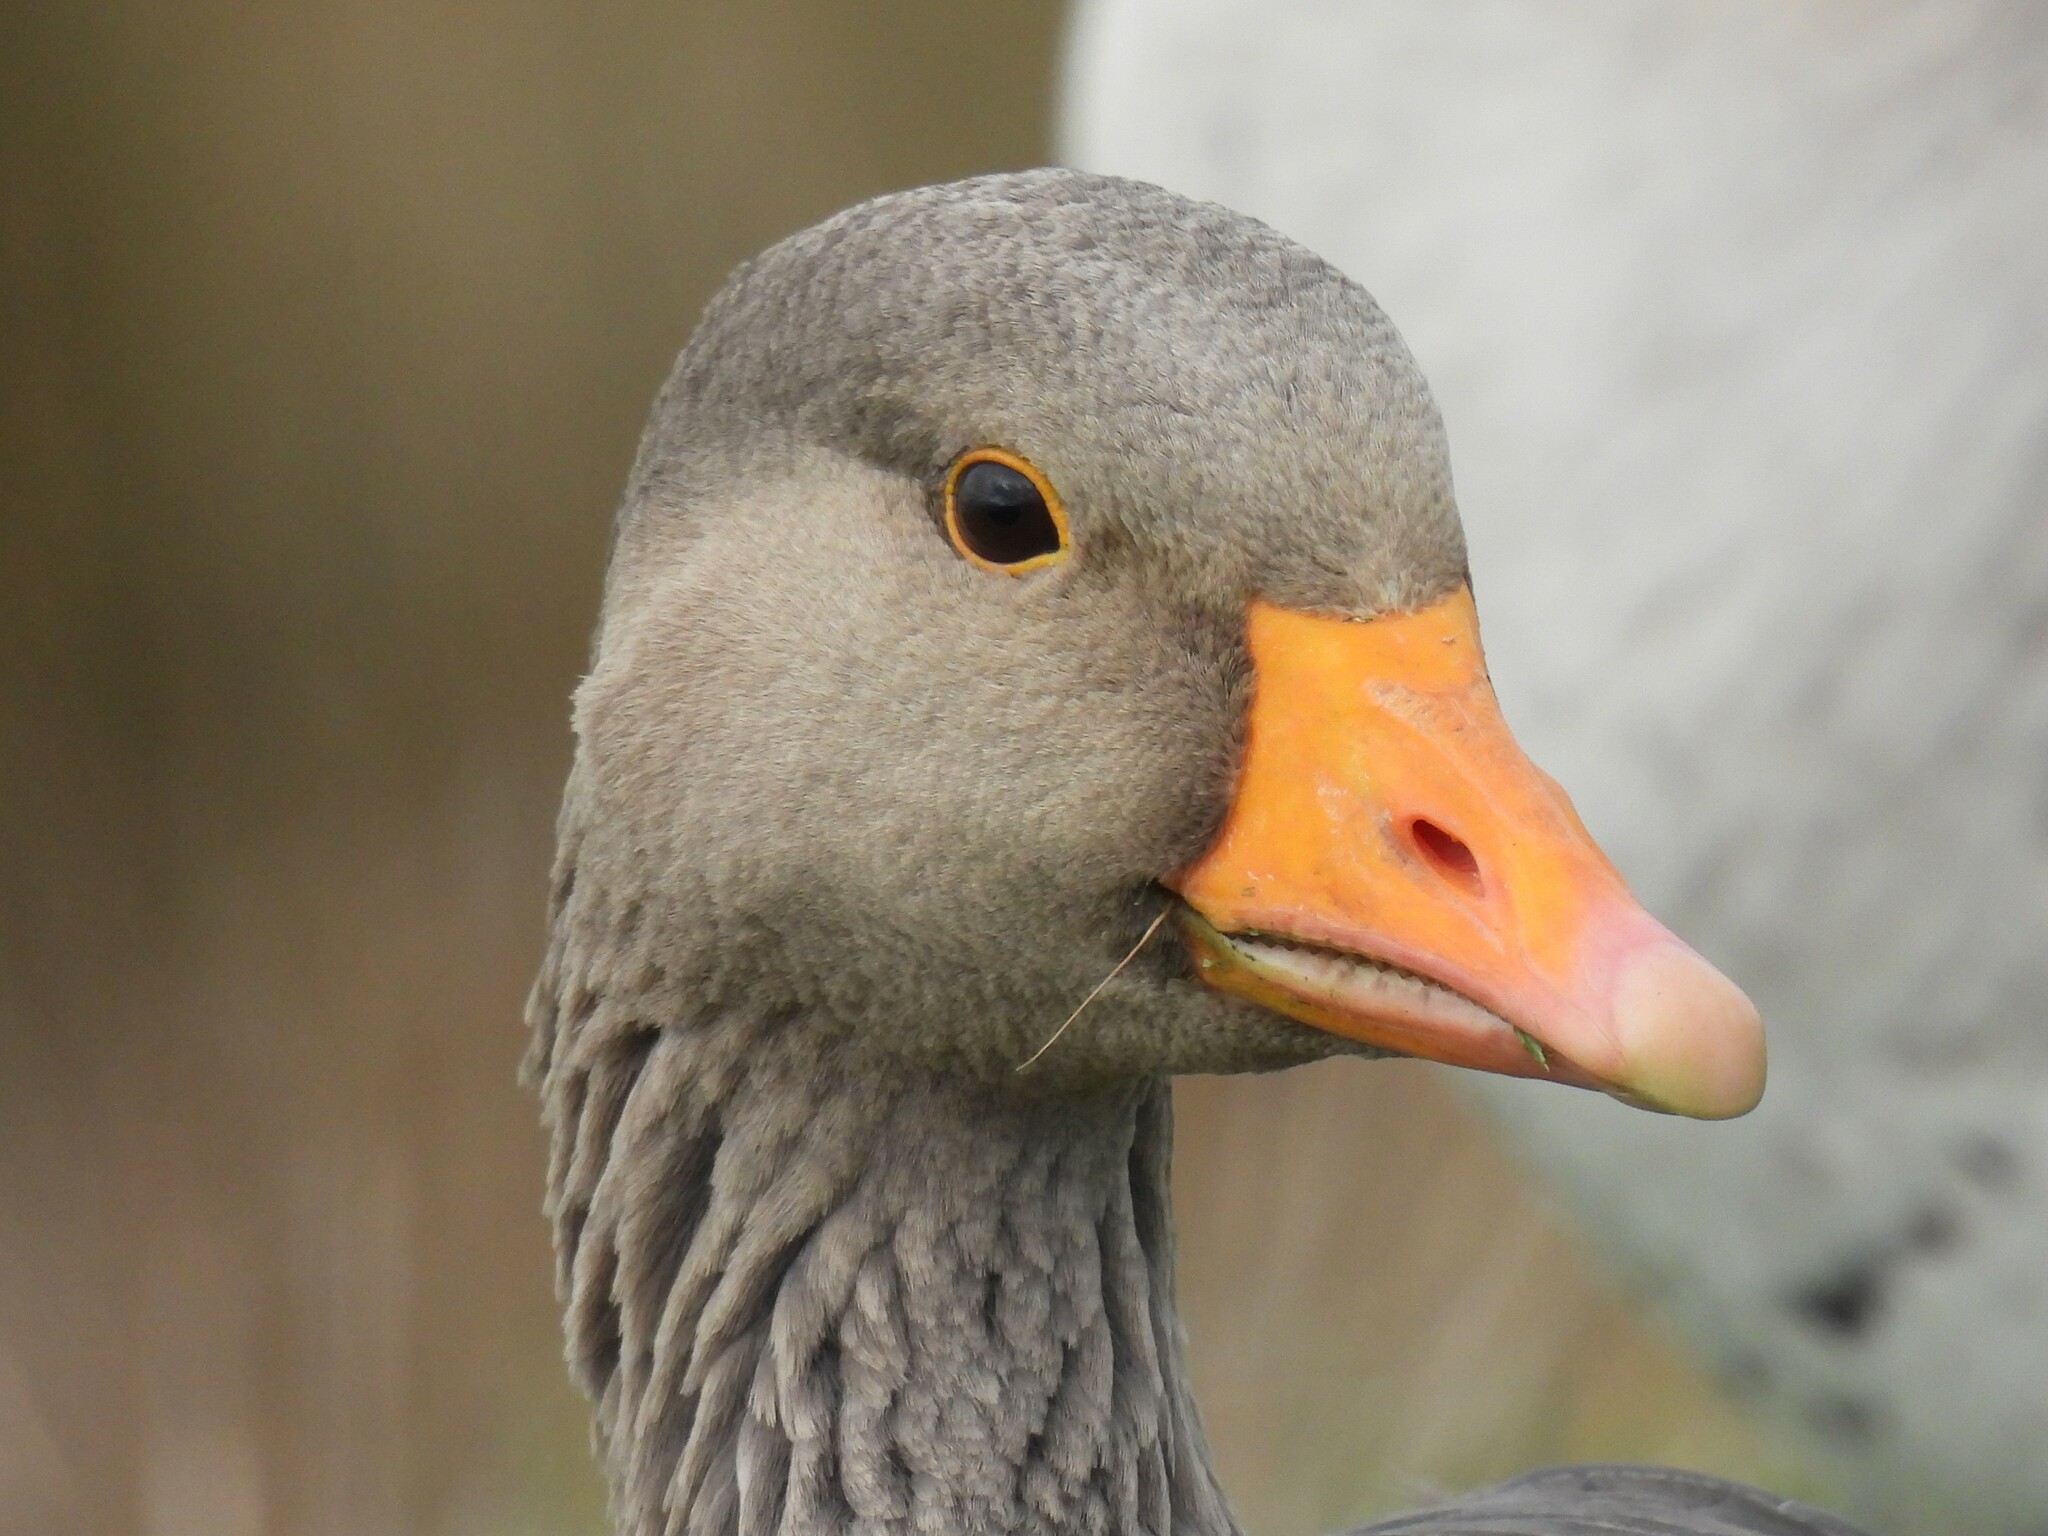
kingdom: Animalia
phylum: Chordata
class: Aves
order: Anseriformes
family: Anatidae
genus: Anser
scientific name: Anser anser
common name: Greylag goose
